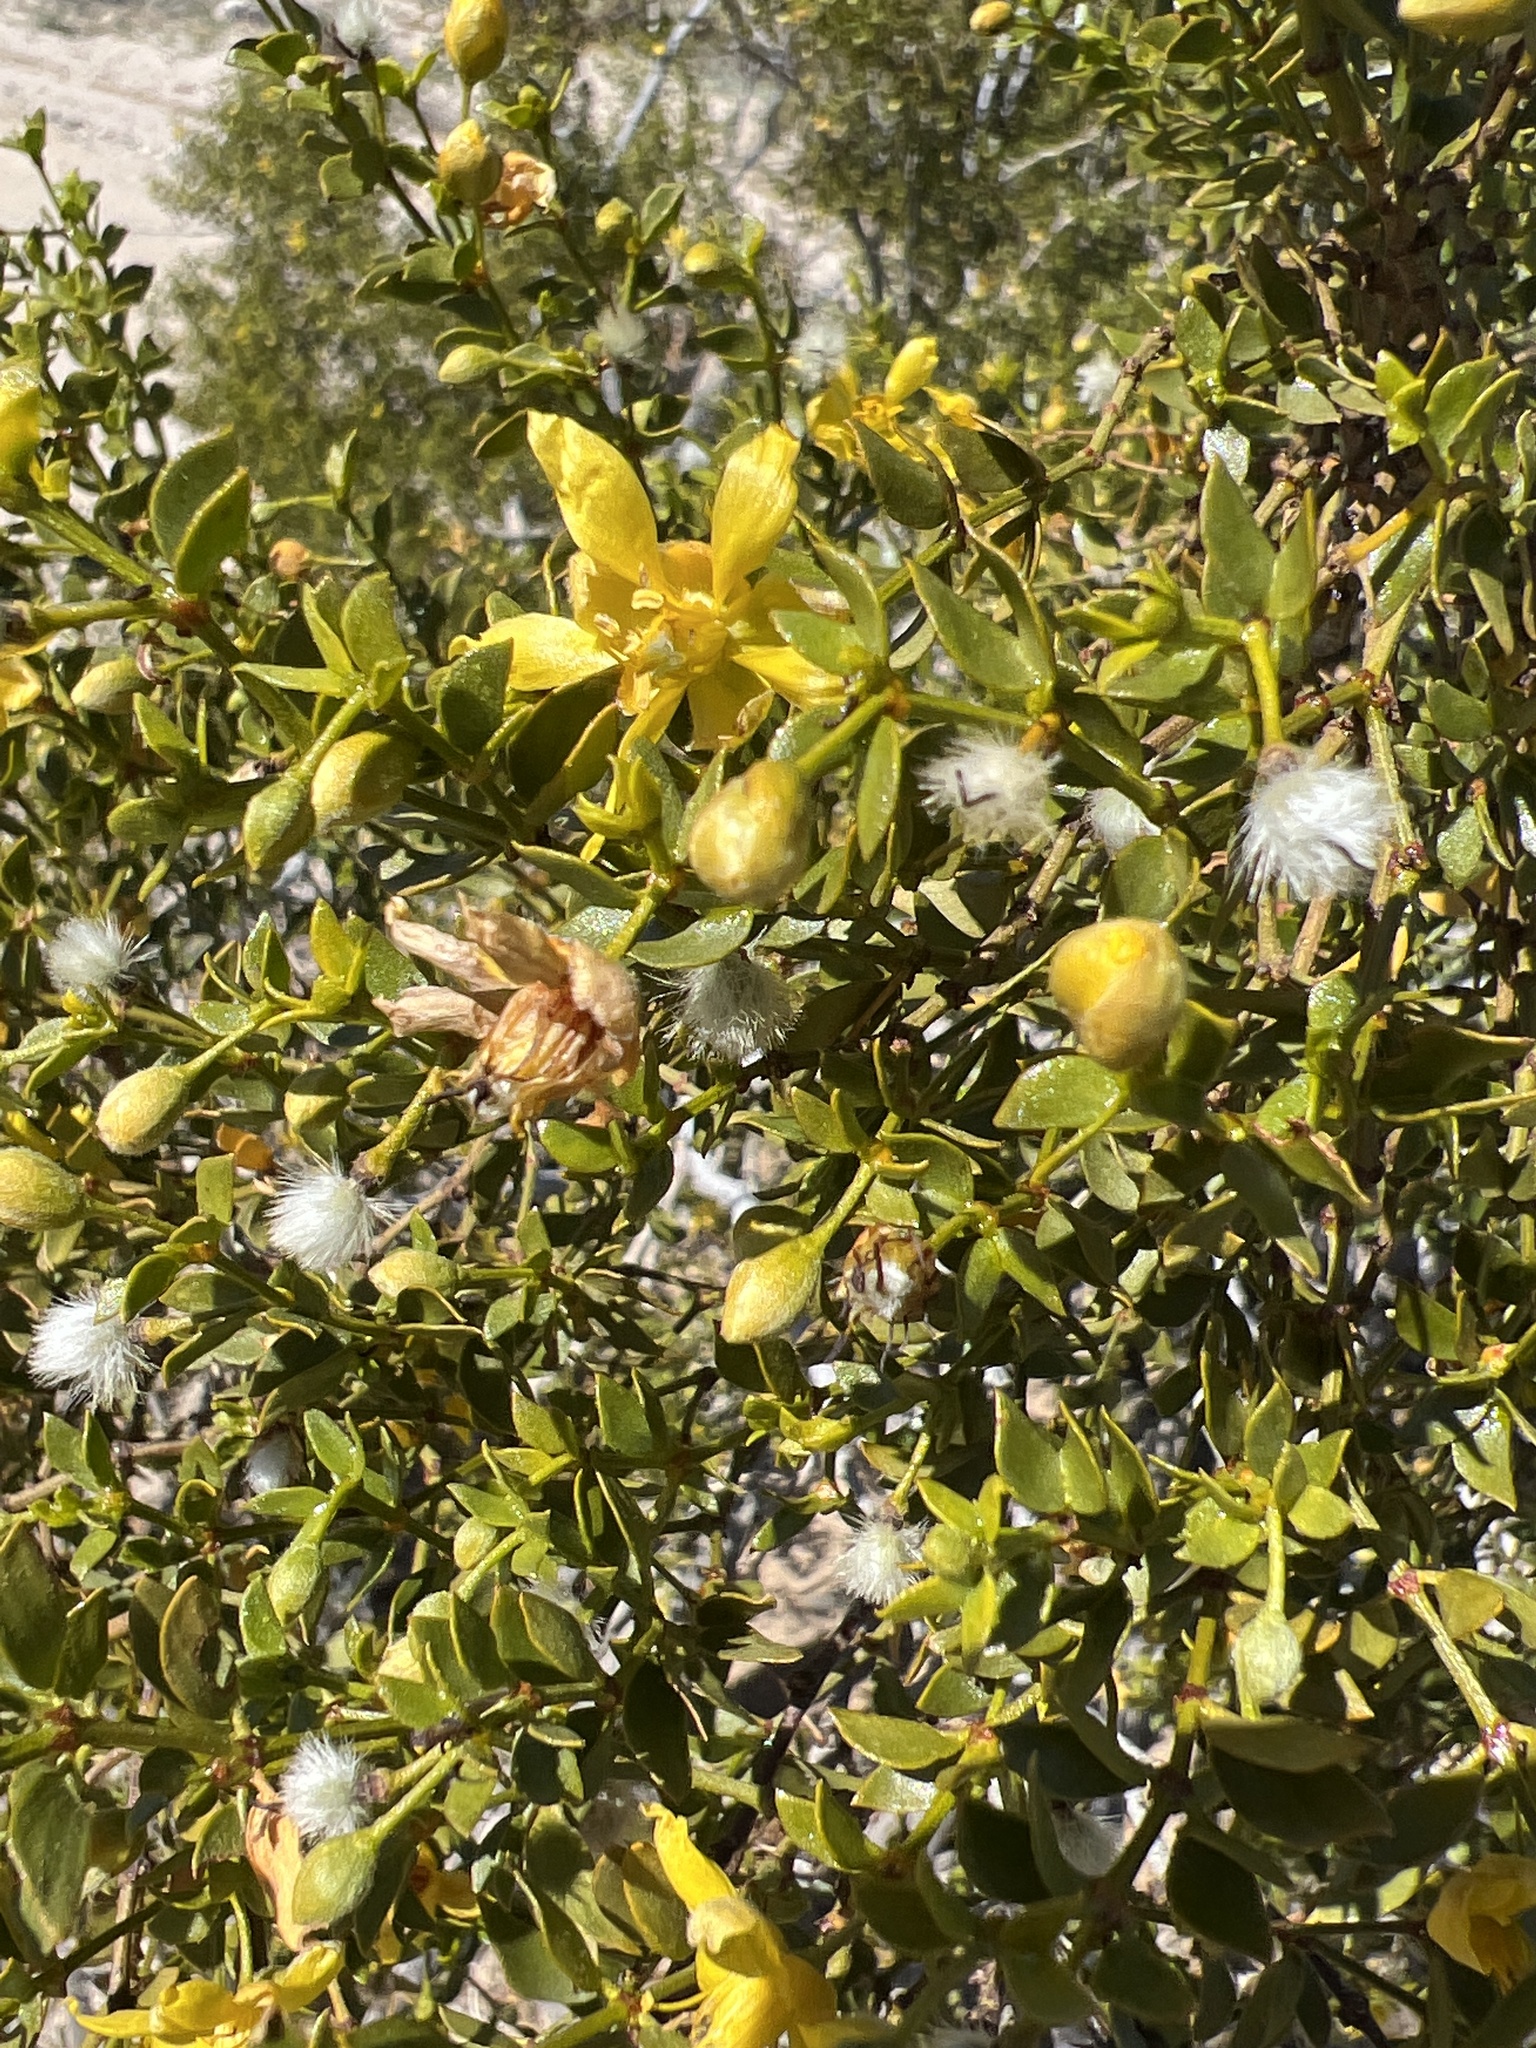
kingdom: Plantae
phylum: Tracheophyta
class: Magnoliopsida
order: Zygophyllales
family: Zygophyllaceae
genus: Larrea
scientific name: Larrea tridentata
